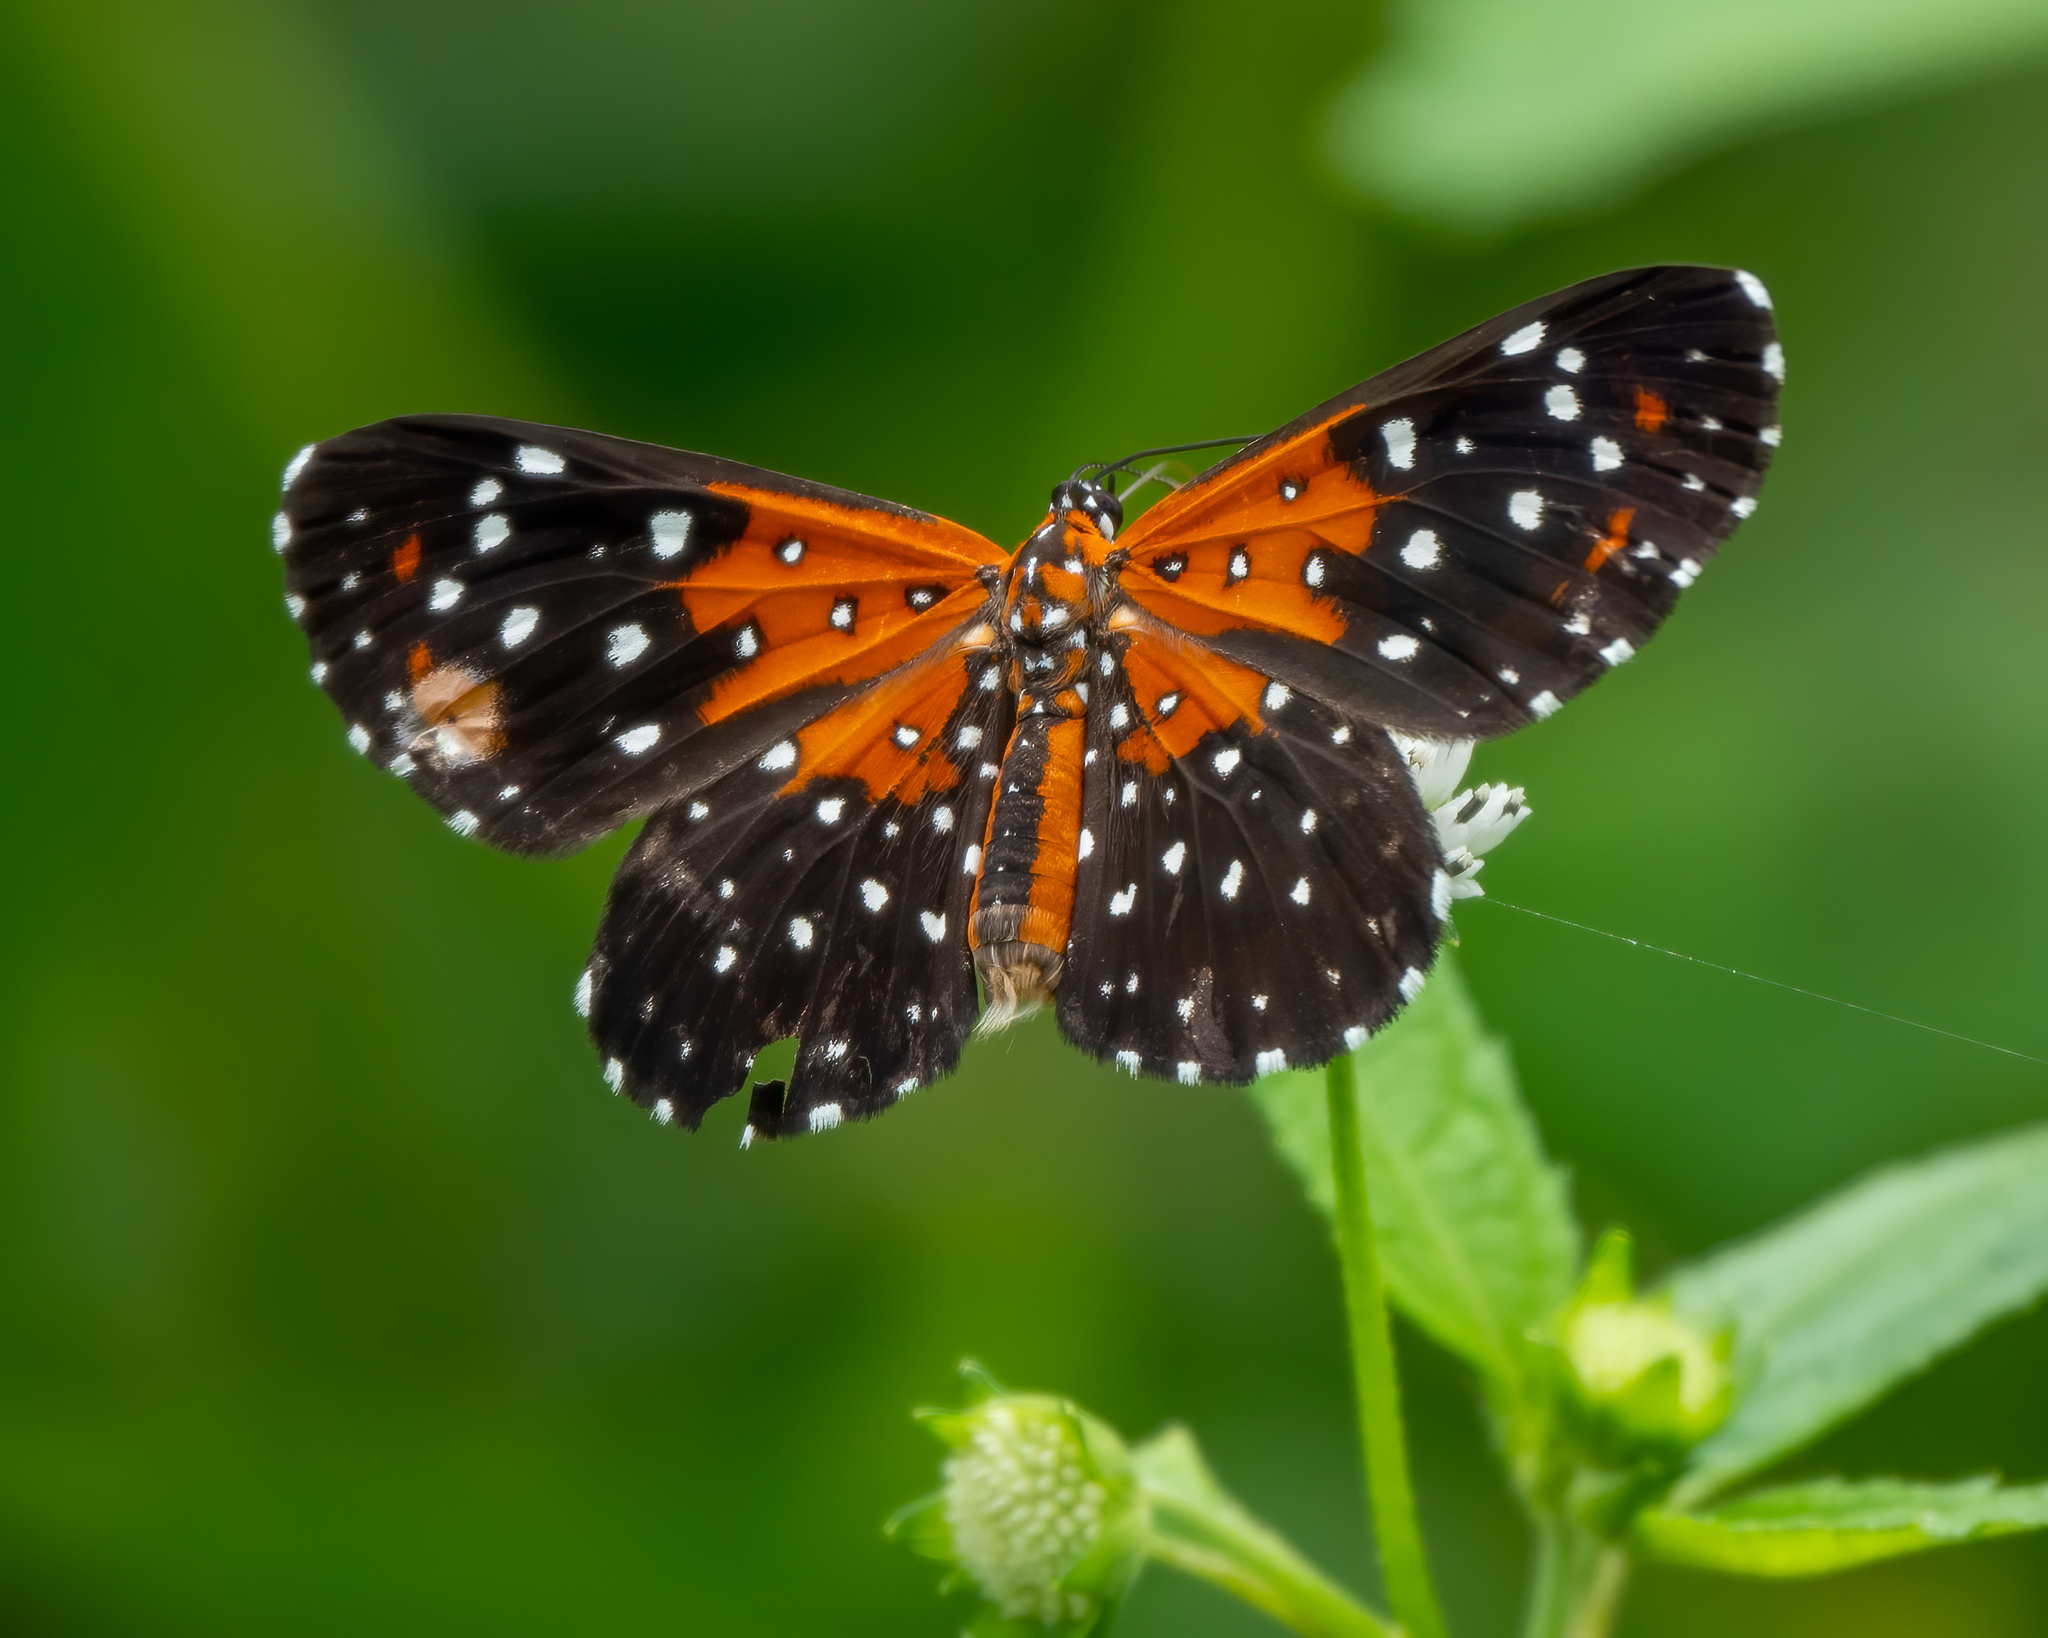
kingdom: Animalia
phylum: Arthropoda
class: Insecta
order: Lepidoptera
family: Riodinidae
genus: Stalachtis
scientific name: Stalachtis phlegia
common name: Dotted prince
